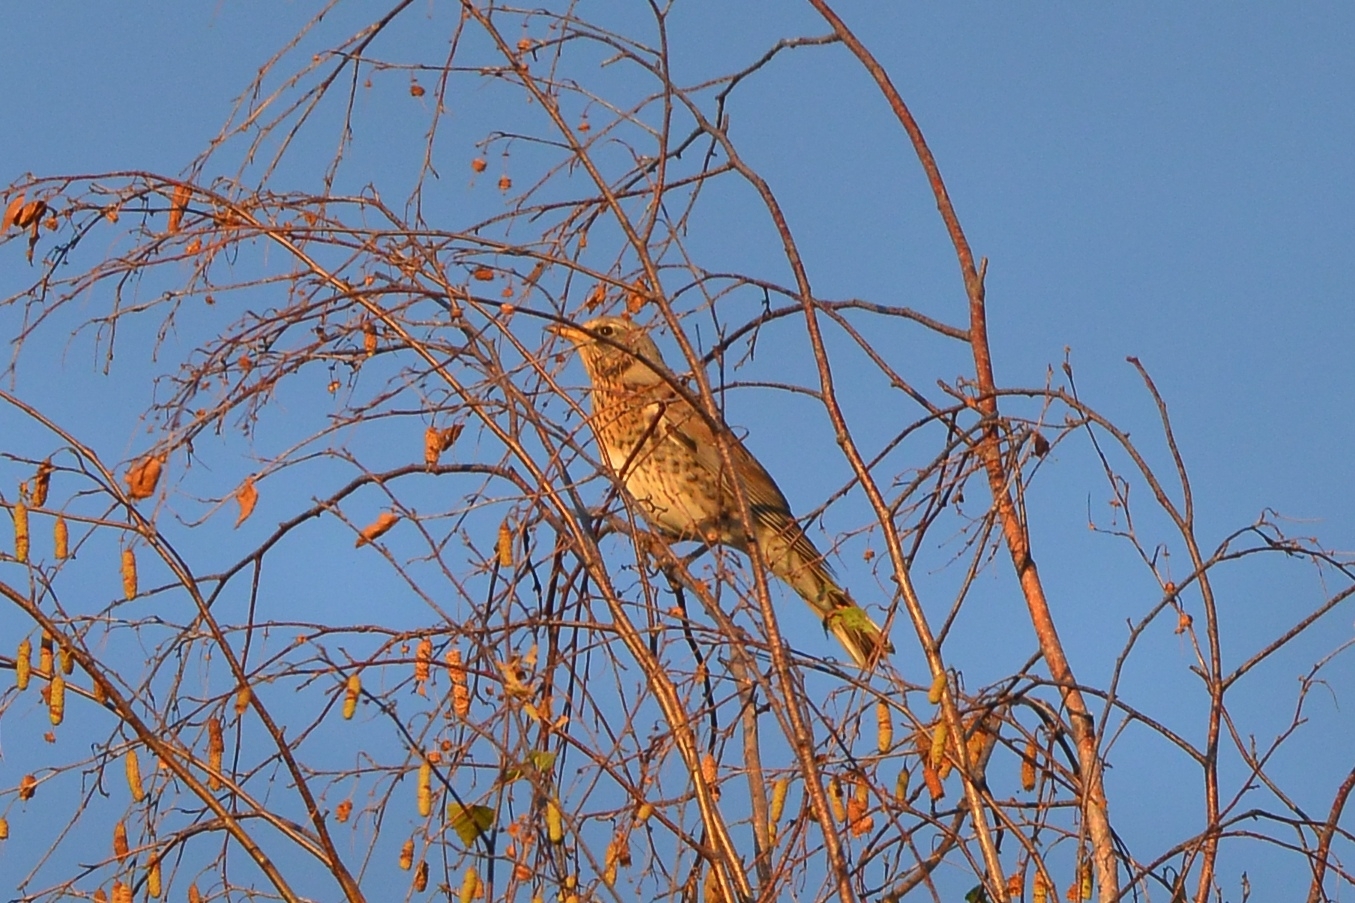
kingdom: Animalia
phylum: Chordata
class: Aves
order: Passeriformes
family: Turdidae
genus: Turdus
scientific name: Turdus pilaris
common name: Fieldfare
